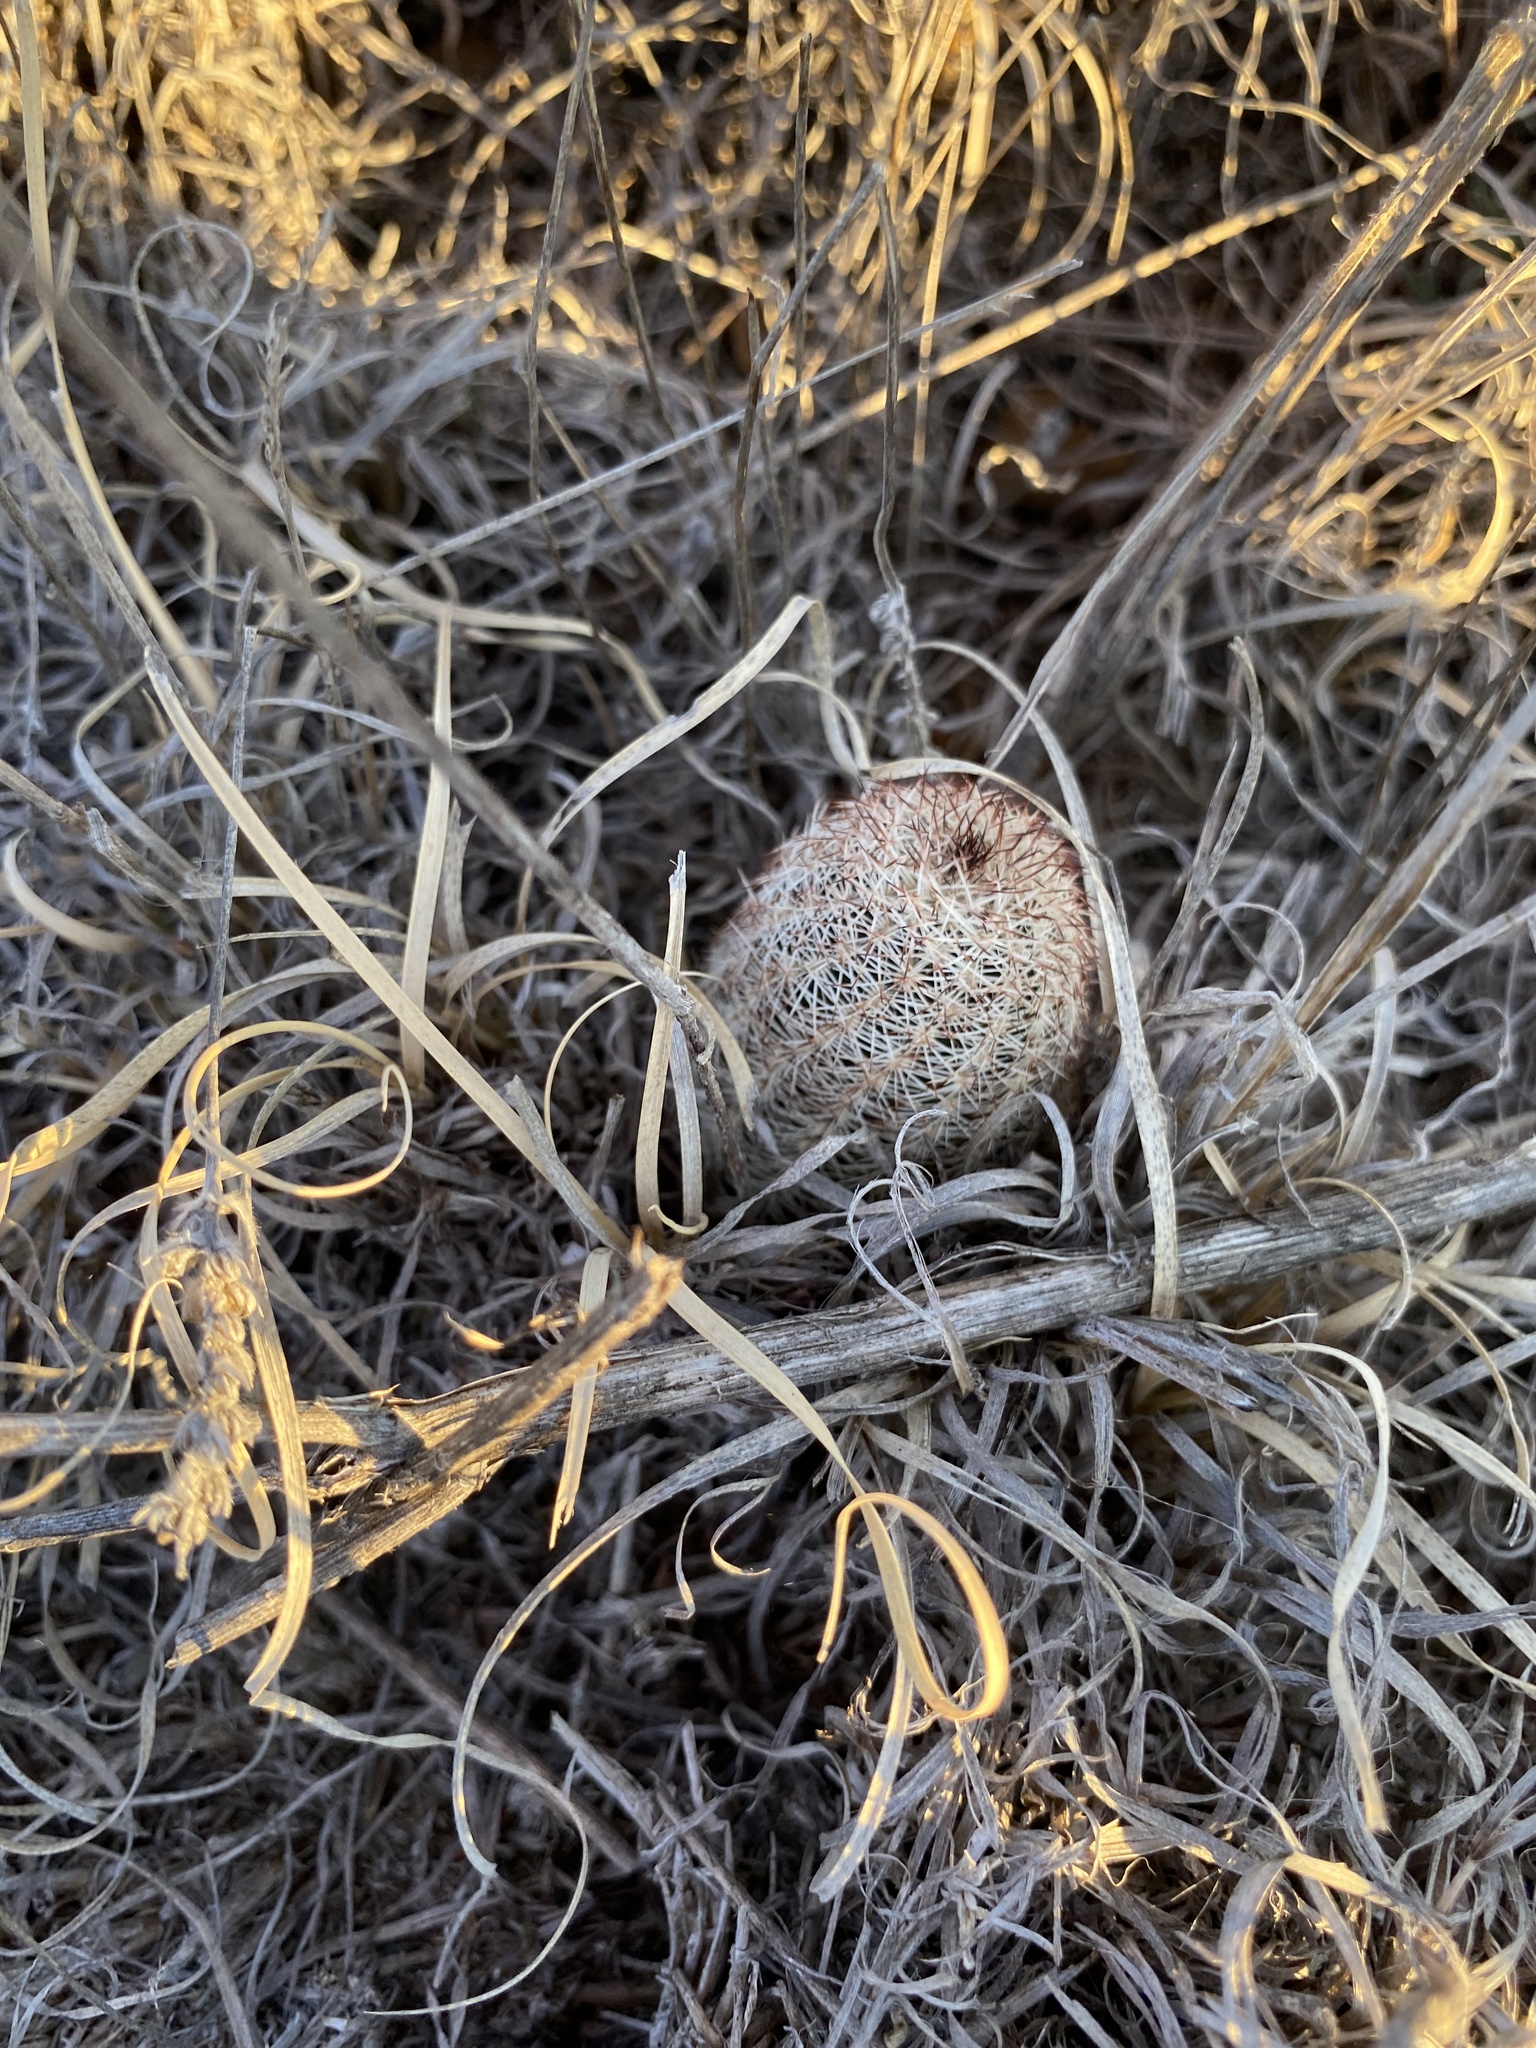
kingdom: Plantae
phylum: Tracheophyta
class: Magnoliopsida
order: Caryophyllales
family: Cactaceae
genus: Echinocereus
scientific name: Echinocereus reichenbachii
